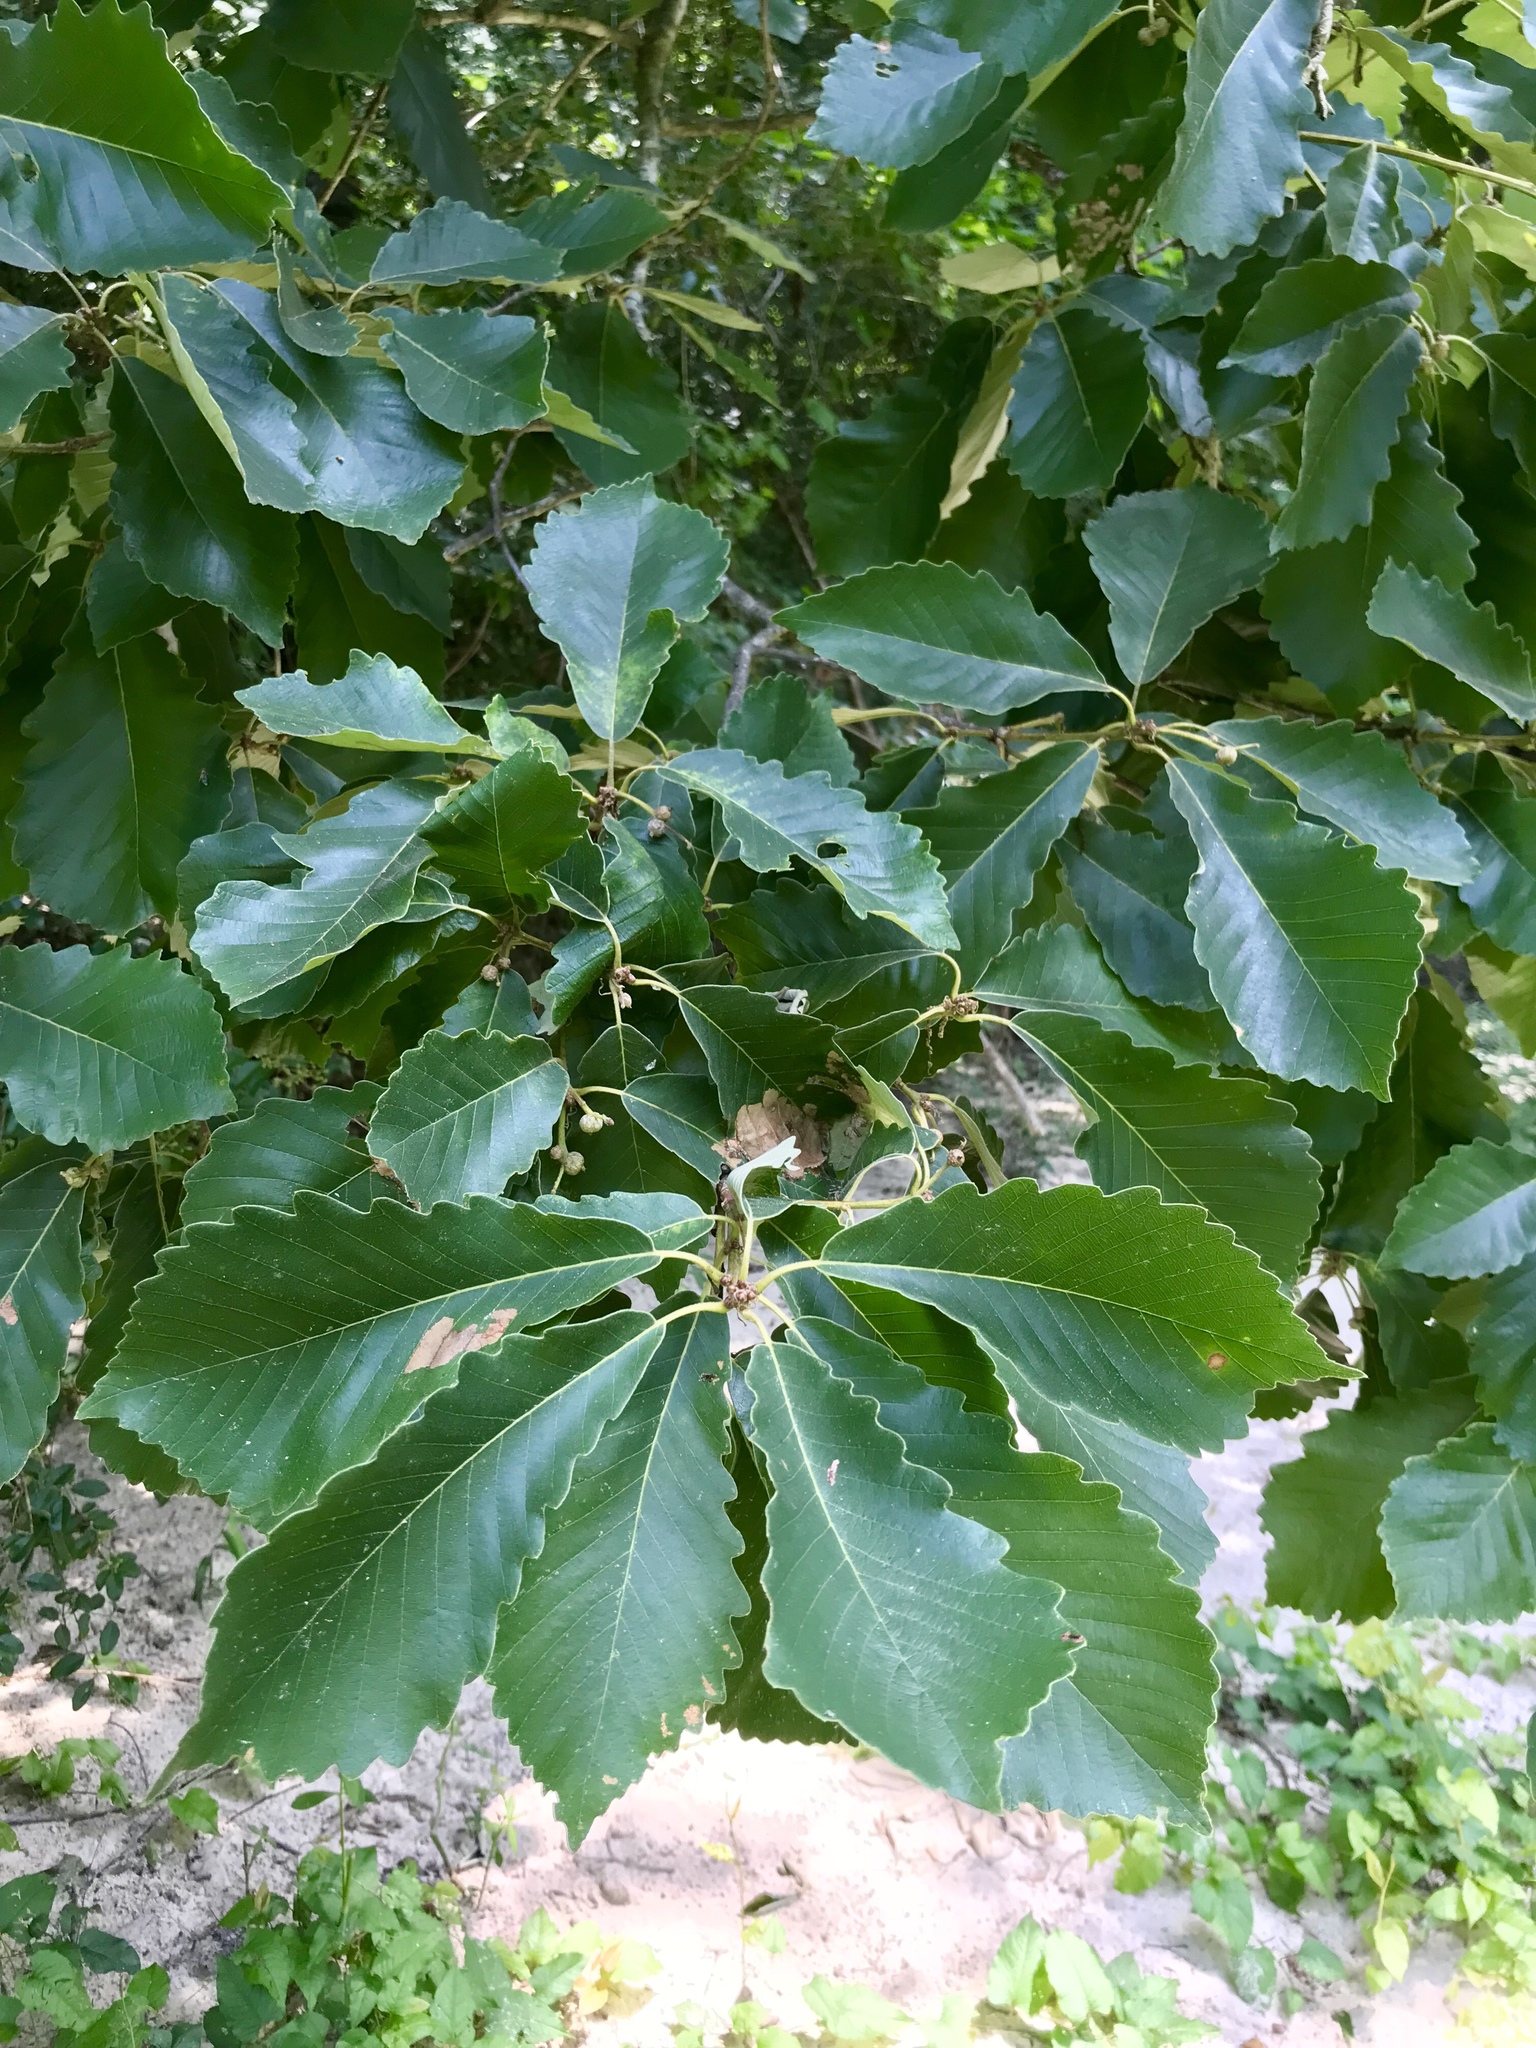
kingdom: Plantae
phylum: Tracheophyta
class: Magnoliopsida
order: Fagales
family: Fagaceae
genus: Quercus
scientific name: Quercus michauxii
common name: Swamp chestnut oak
